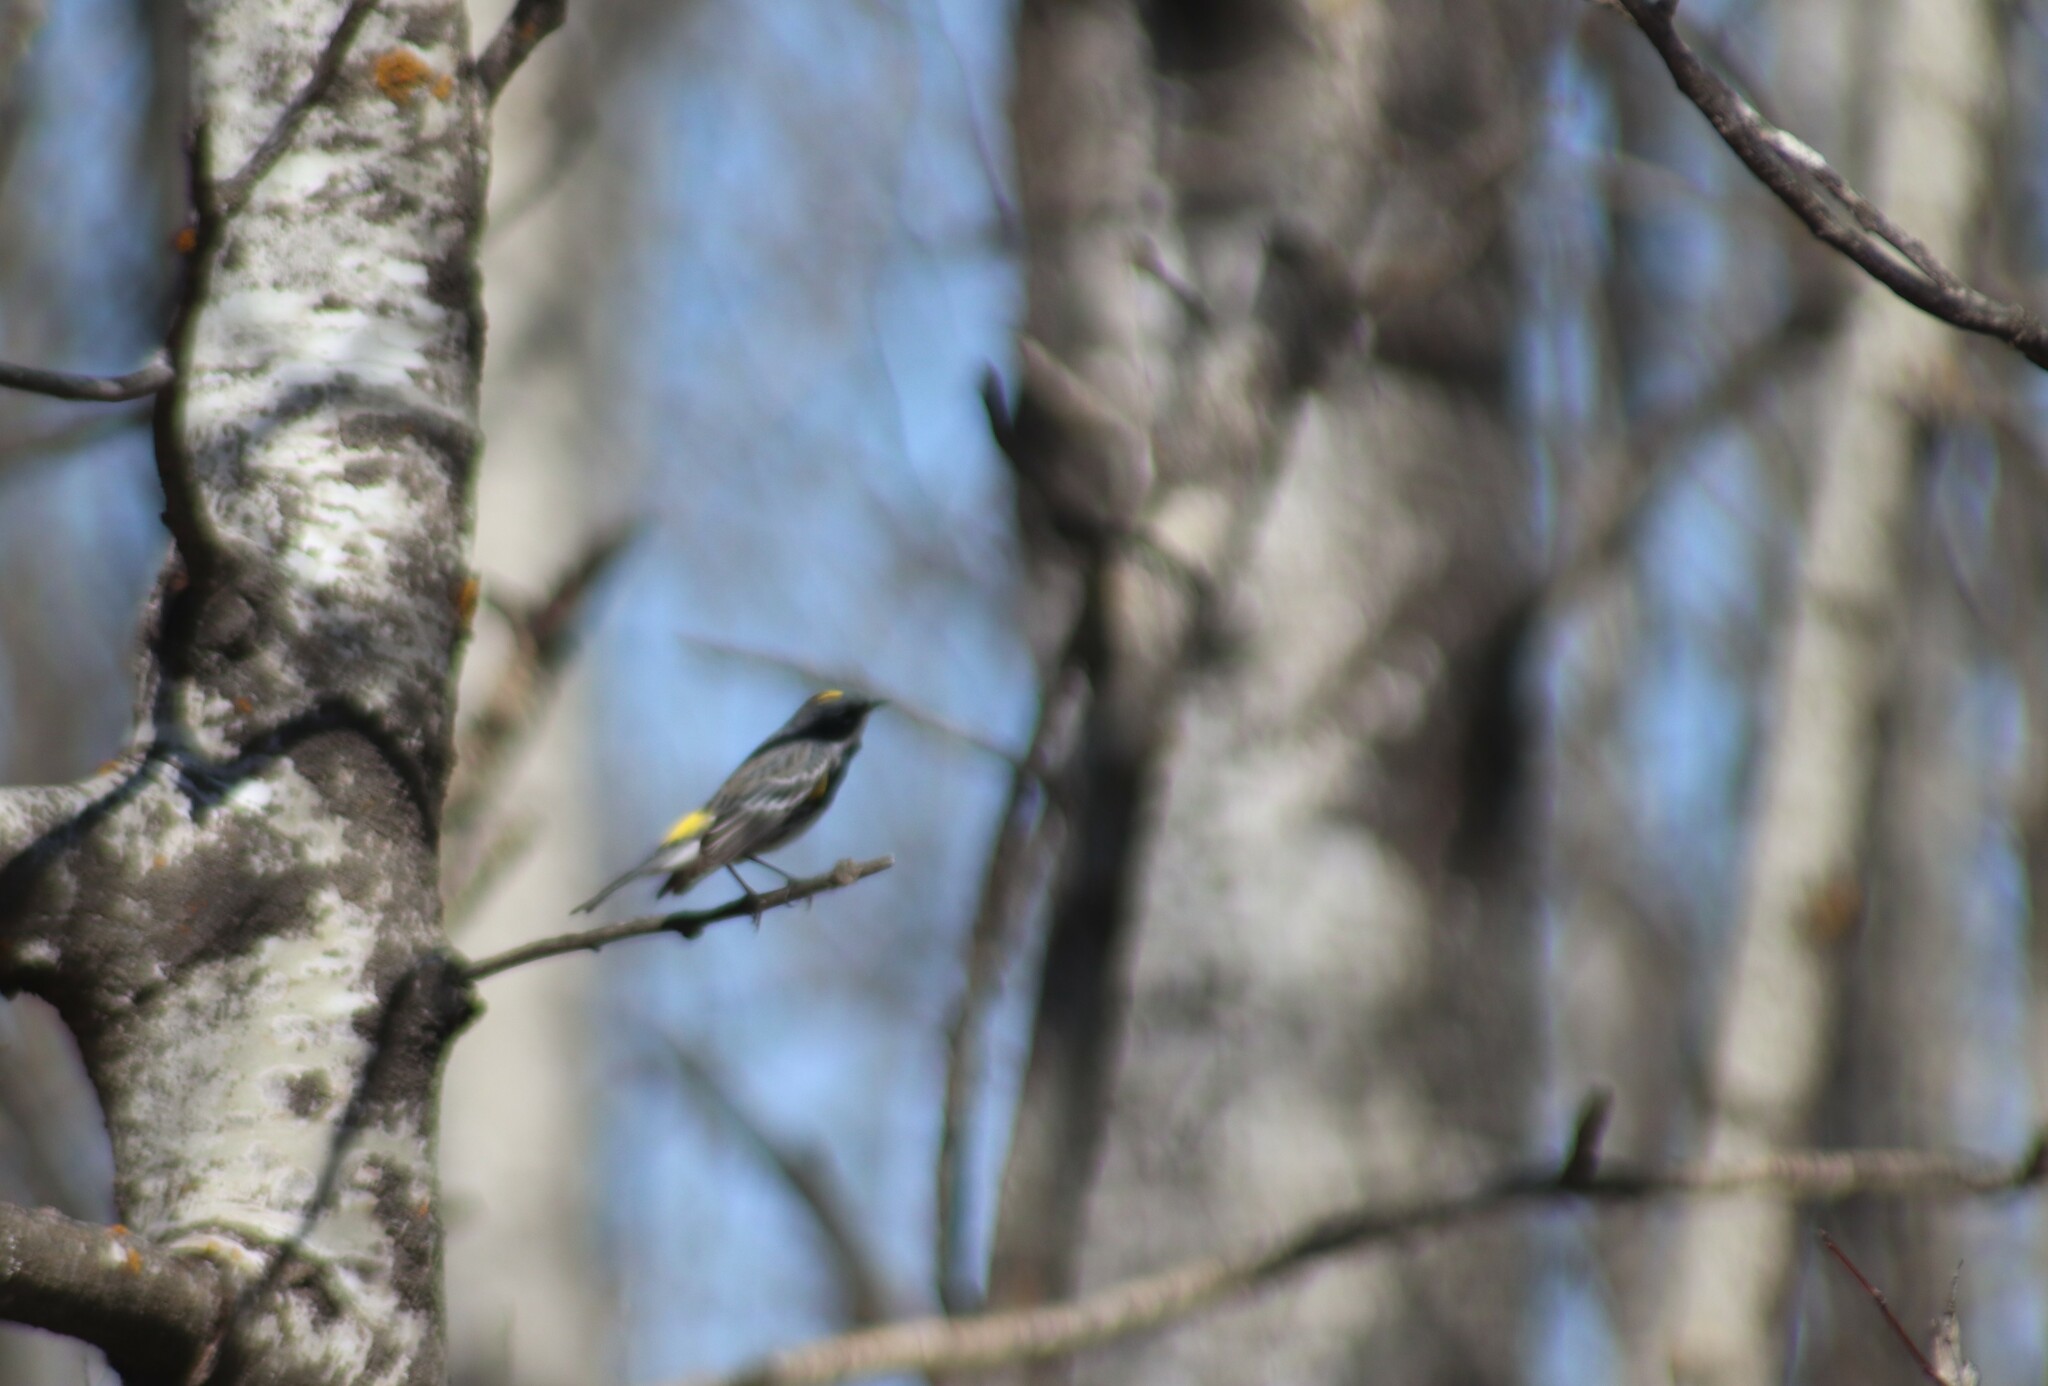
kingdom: Animalia
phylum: Chordata
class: Aves
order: Passeriformes
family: Parulidae
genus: Setophaga
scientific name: Setophaga coronata
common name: Myrtle warbler
